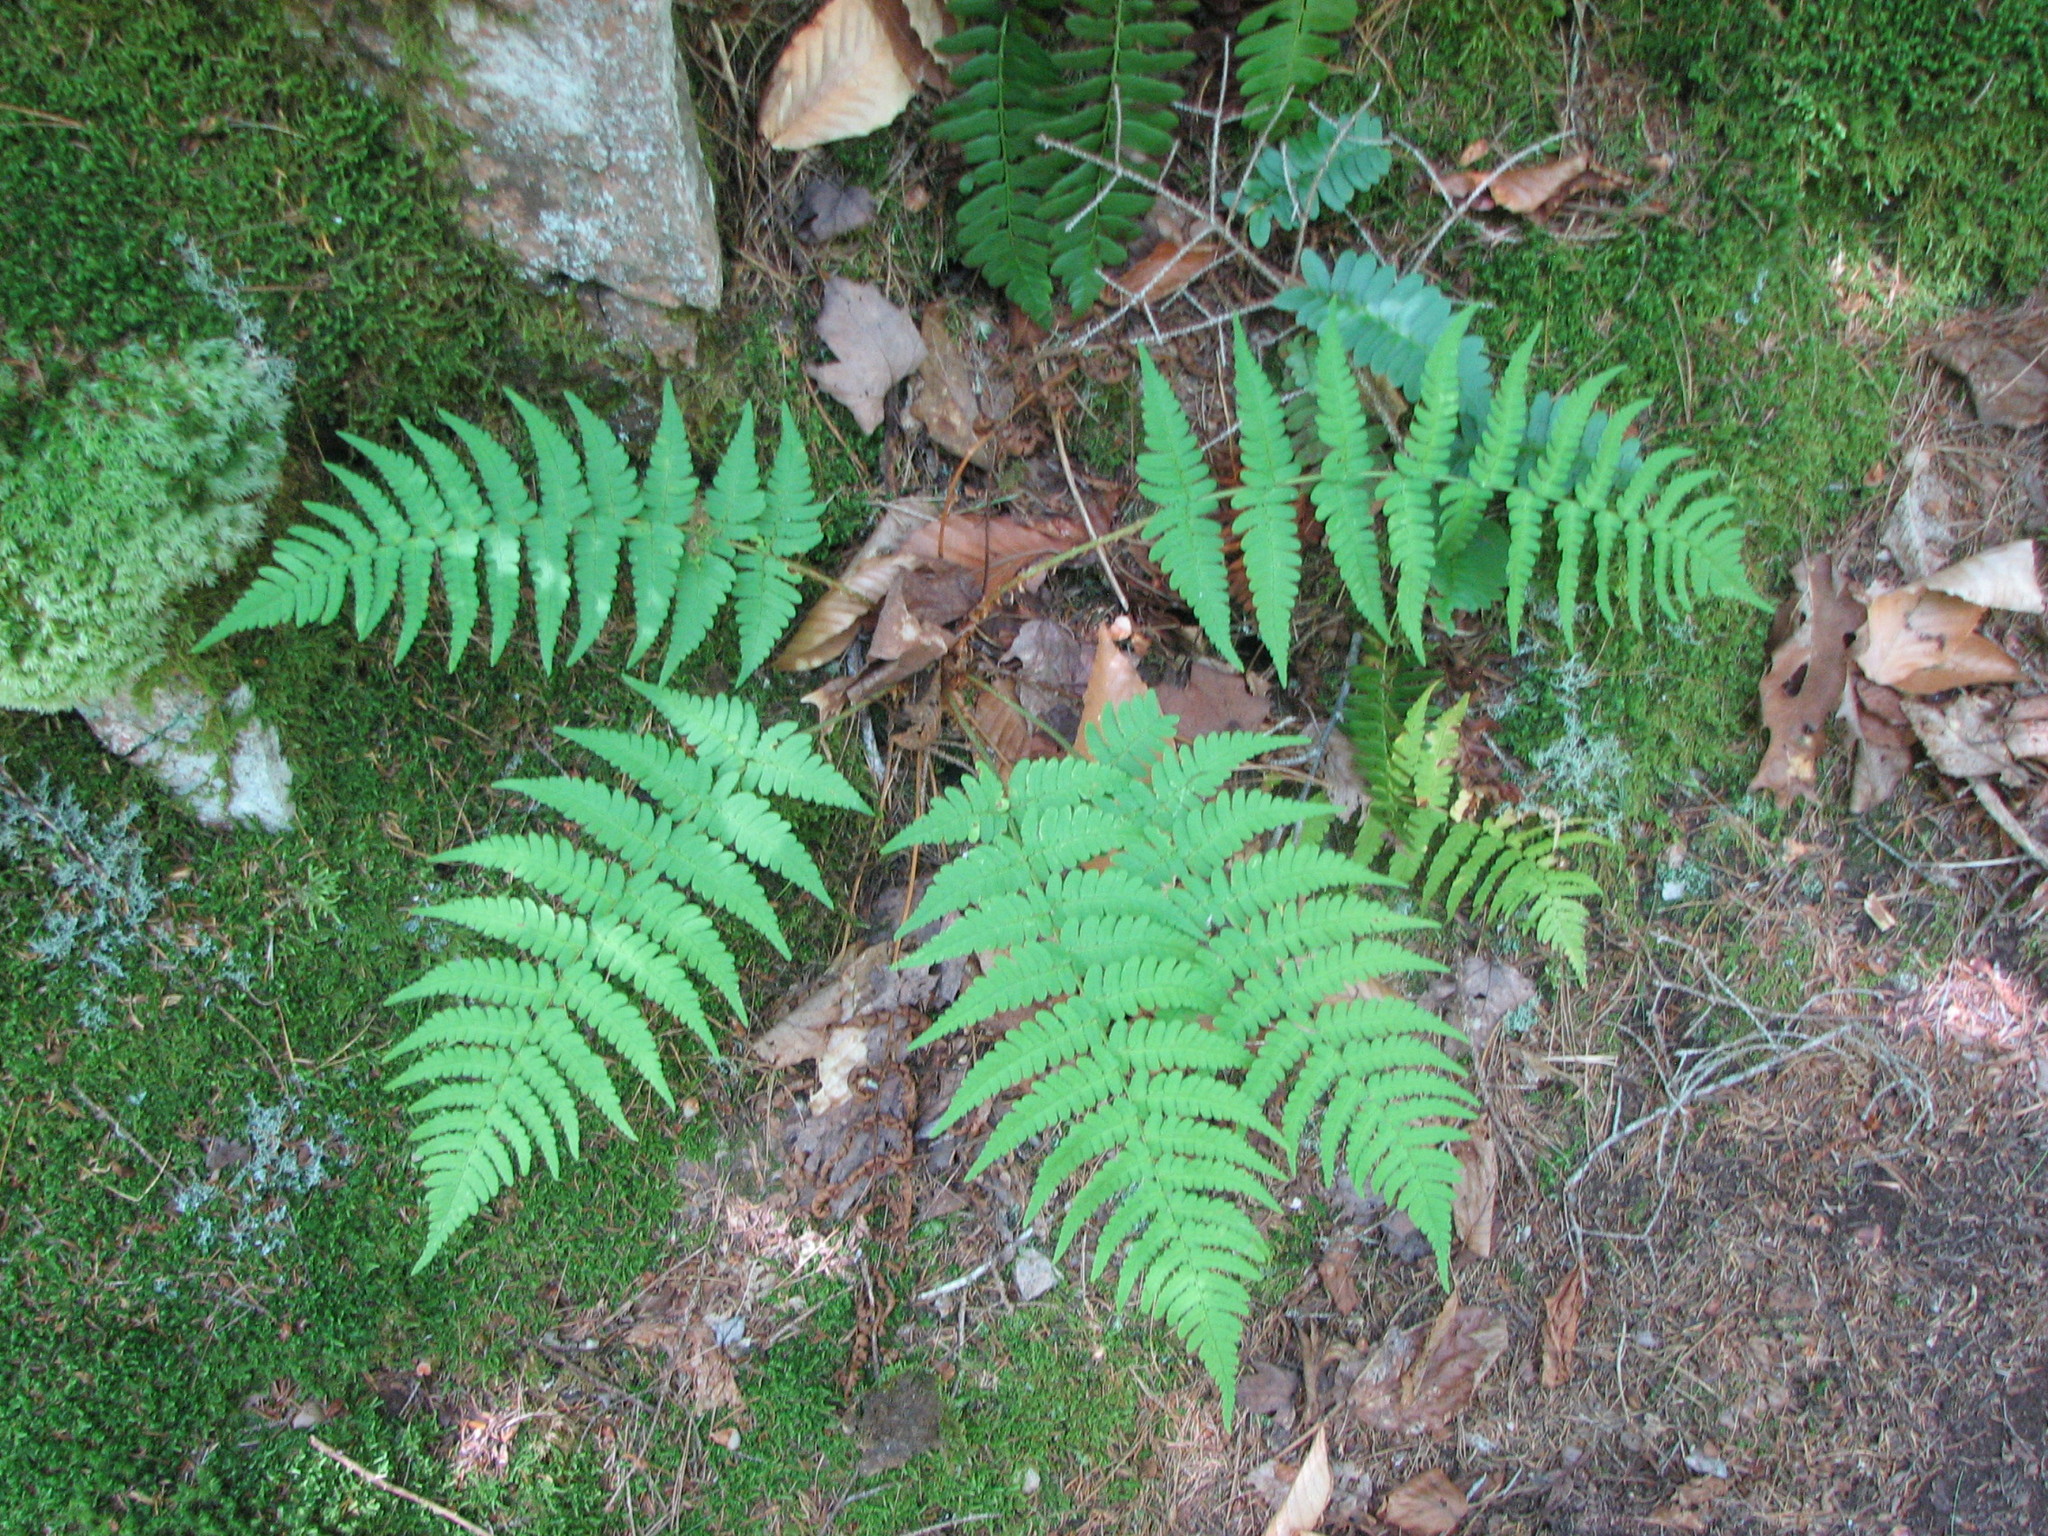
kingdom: Plantae
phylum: Tracheophyta
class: Polypodiopsida
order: Polypodiales
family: Dryopteridaceae
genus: Dryopteris
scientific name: Dryopteris marginalis
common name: Marginal wood fern
